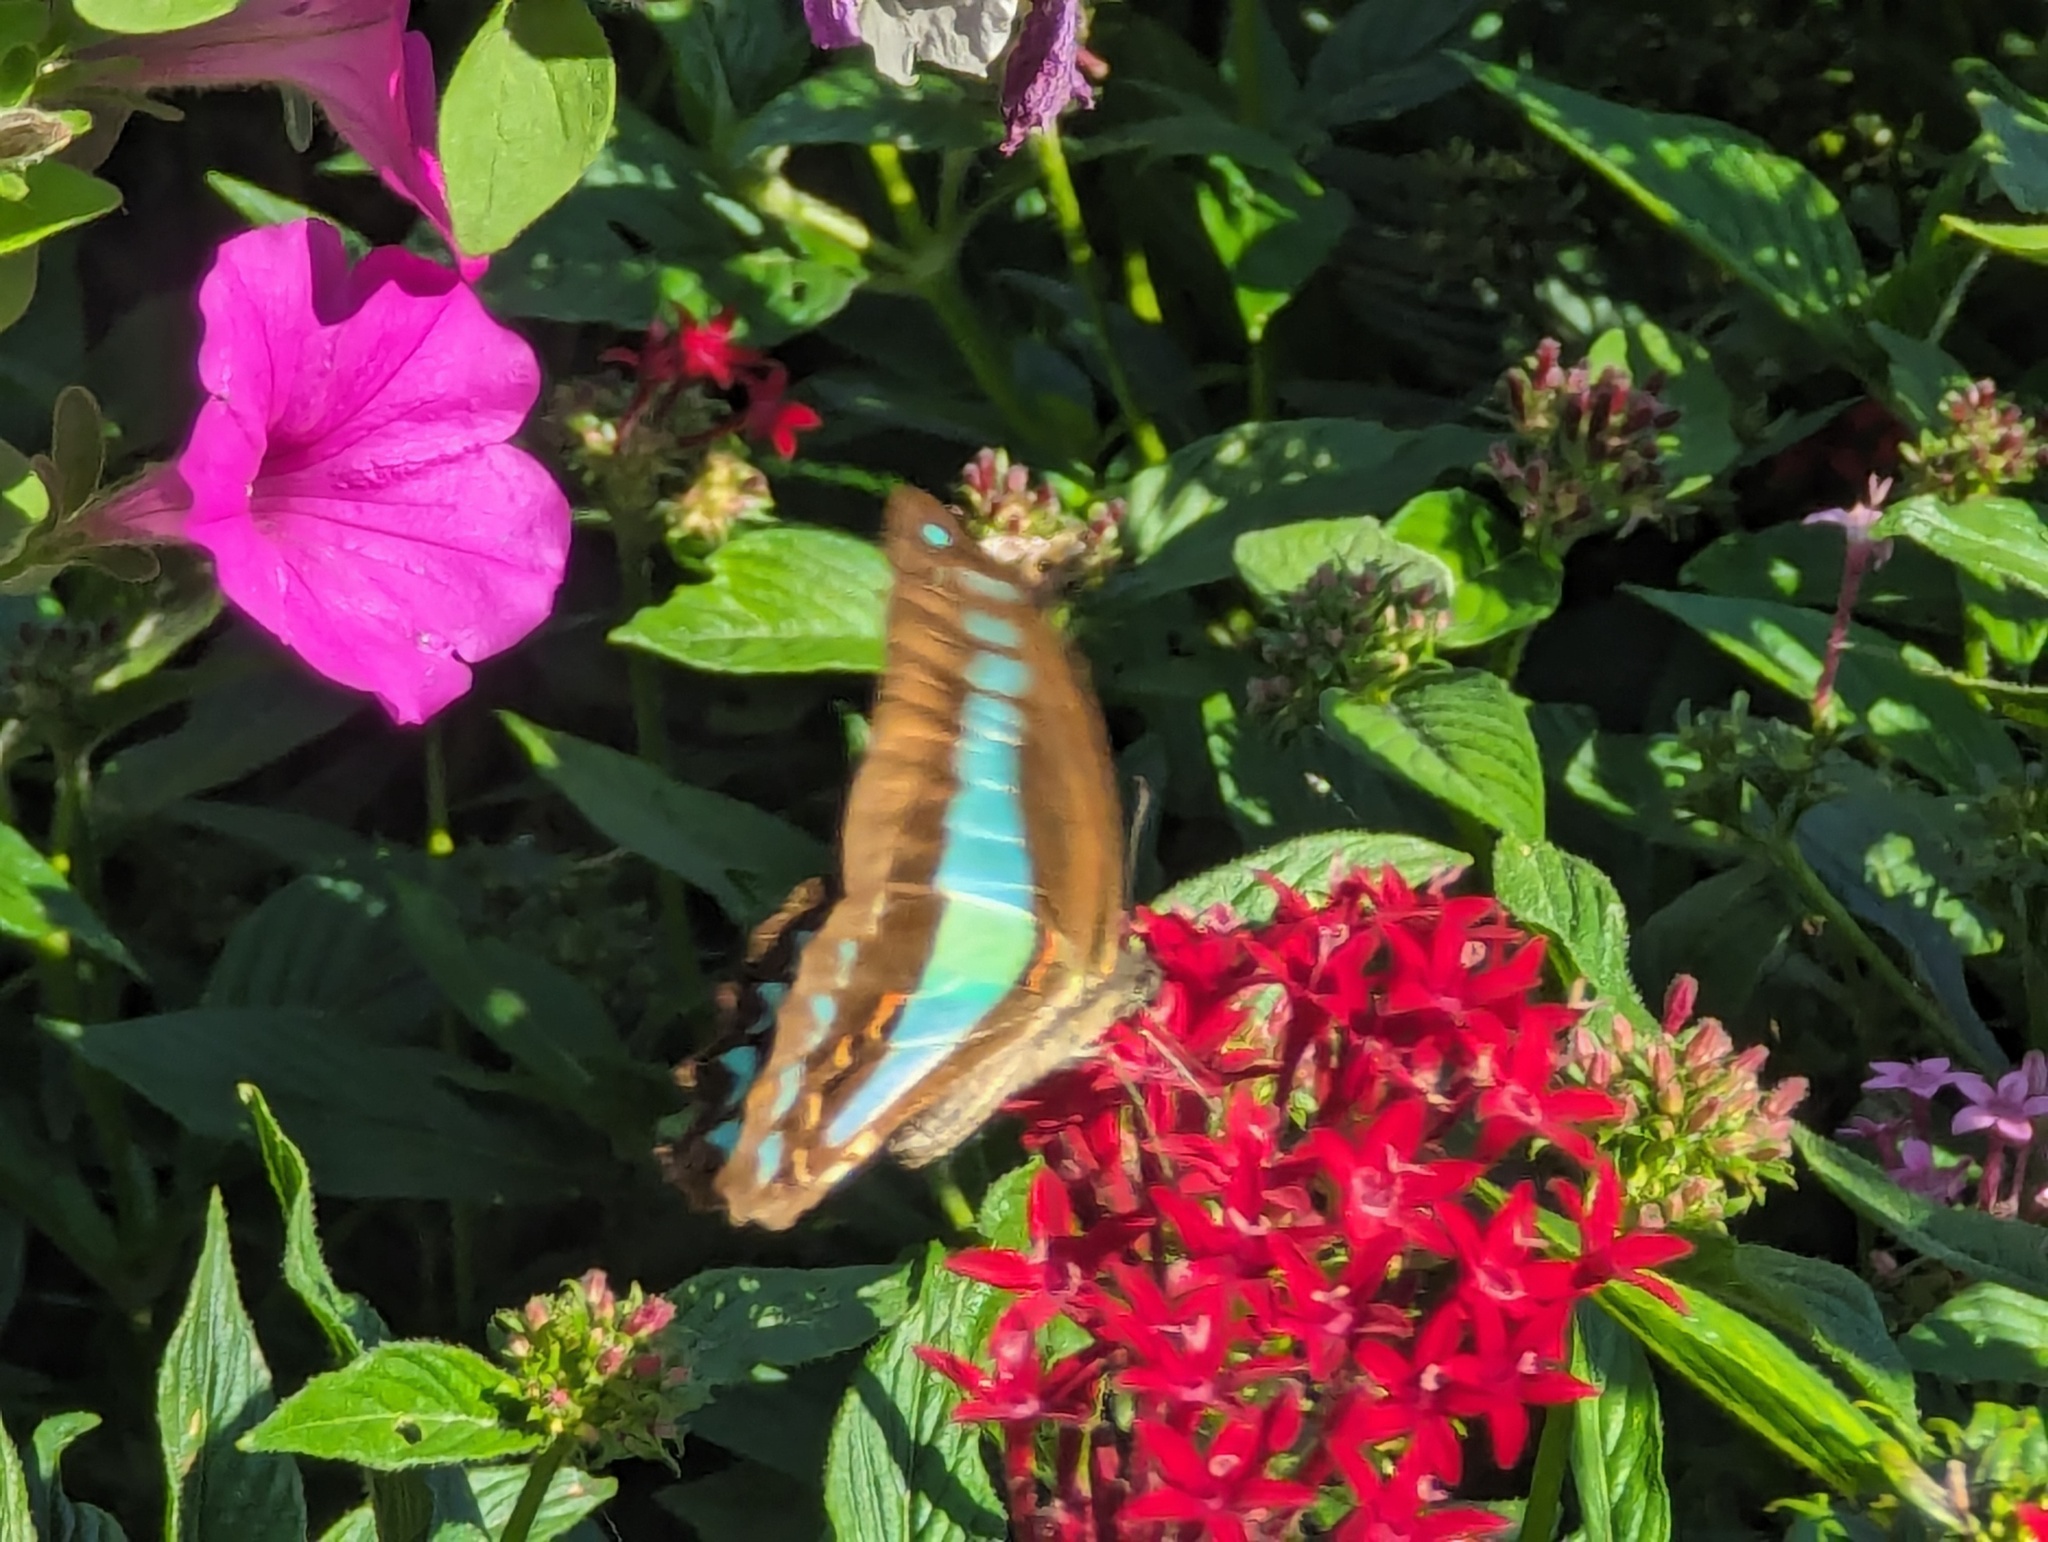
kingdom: Animalia
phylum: Arthropoda
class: Insecta
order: Lepidoptera
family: Papilionidae
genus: Graphium
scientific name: Graphium
